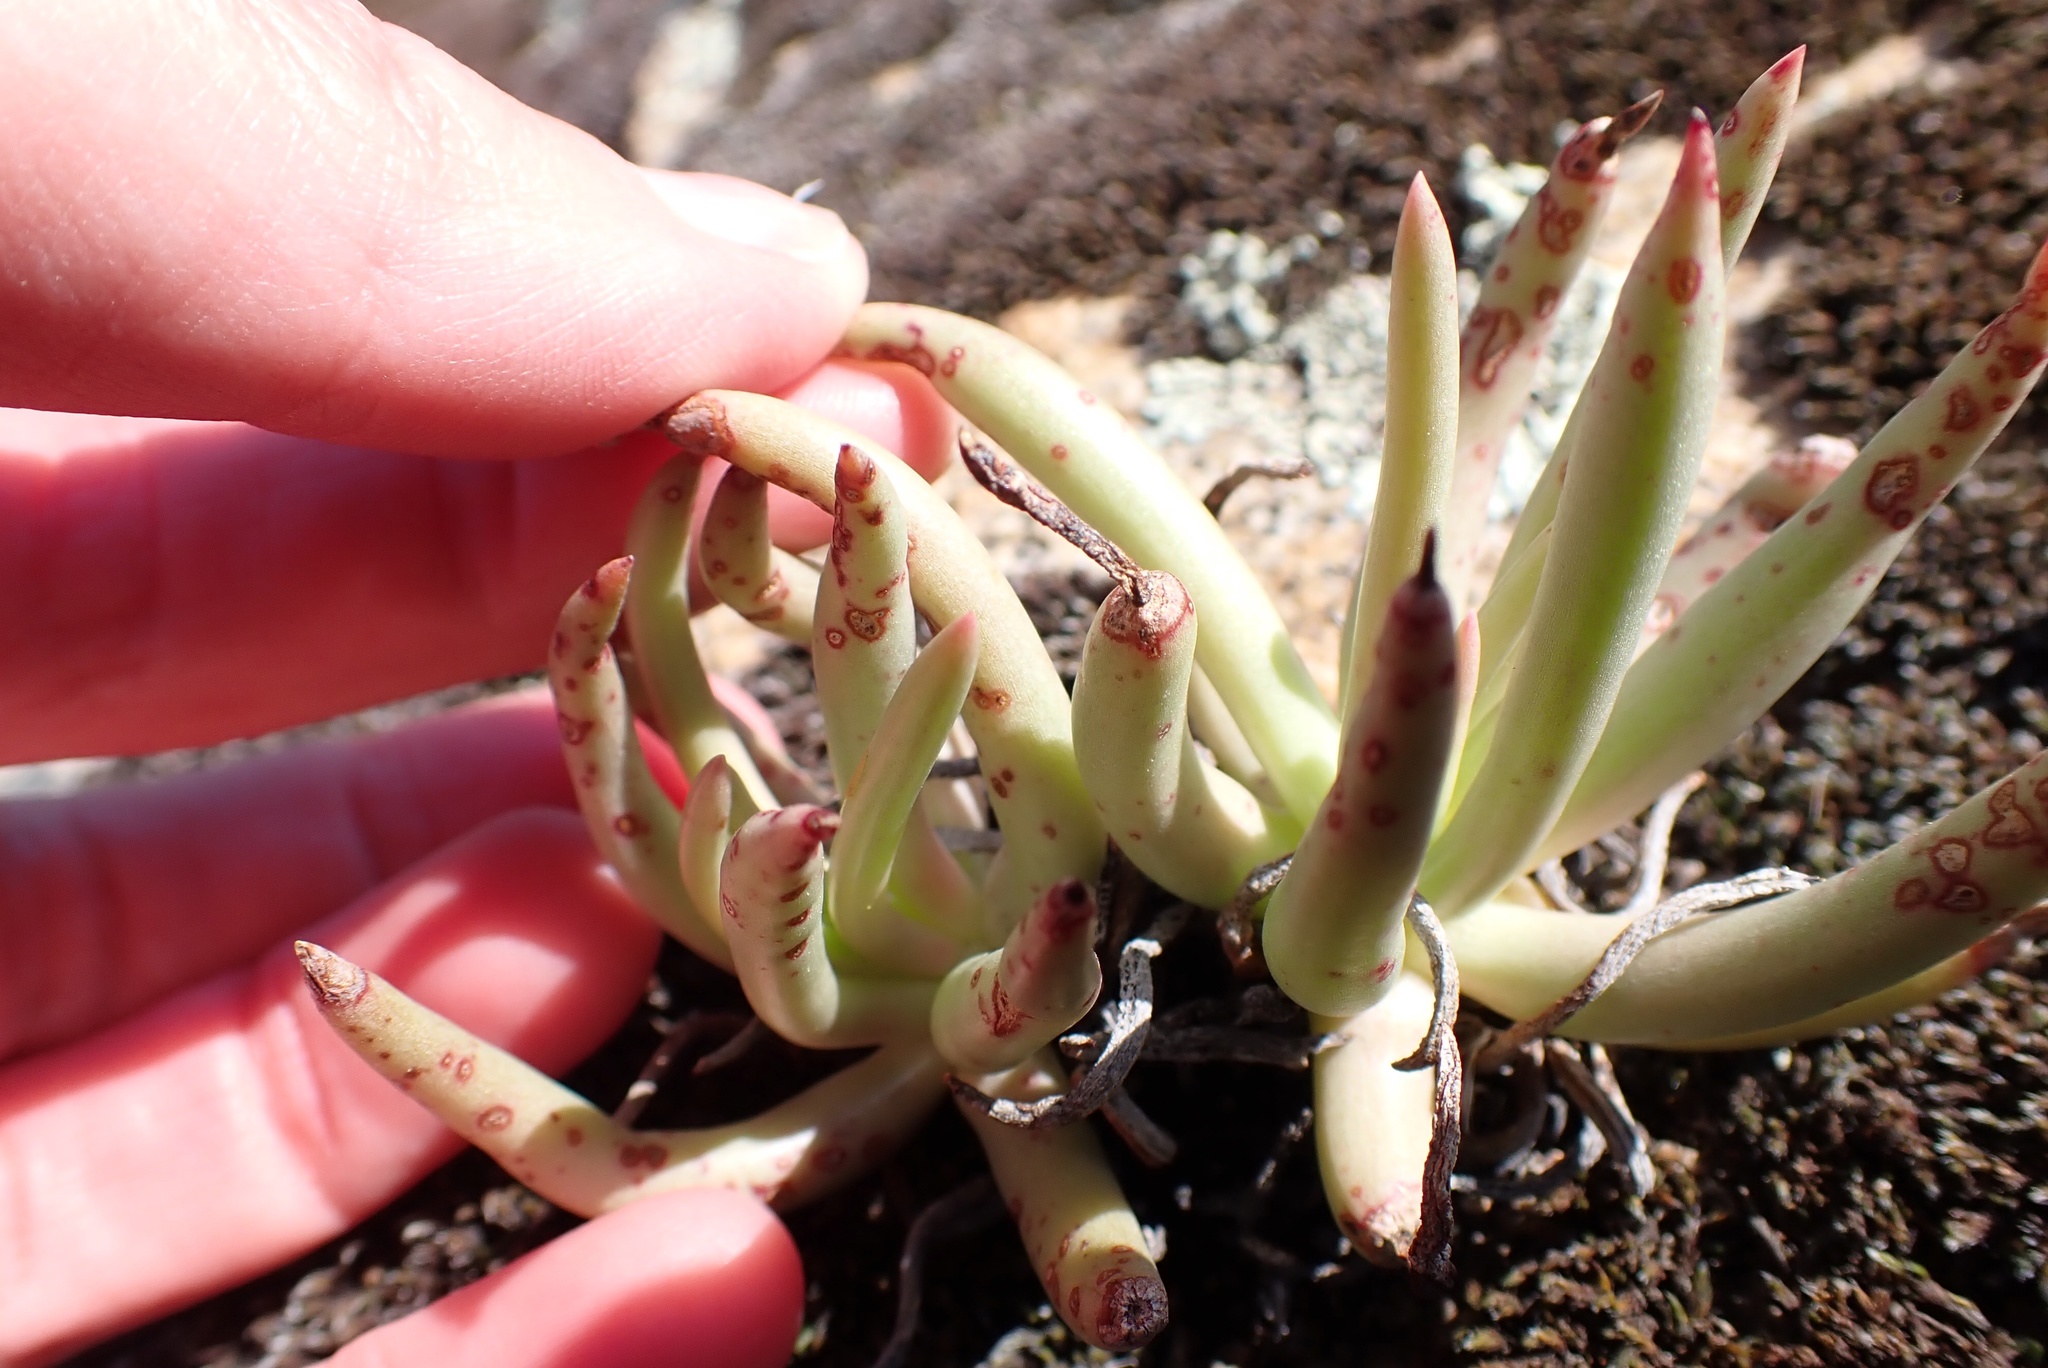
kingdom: Plantae
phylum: Tracheophyta
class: Magnoliopsida
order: Saxifragales
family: Crassulaceae
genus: Dudleya
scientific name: Dudleya edulis
